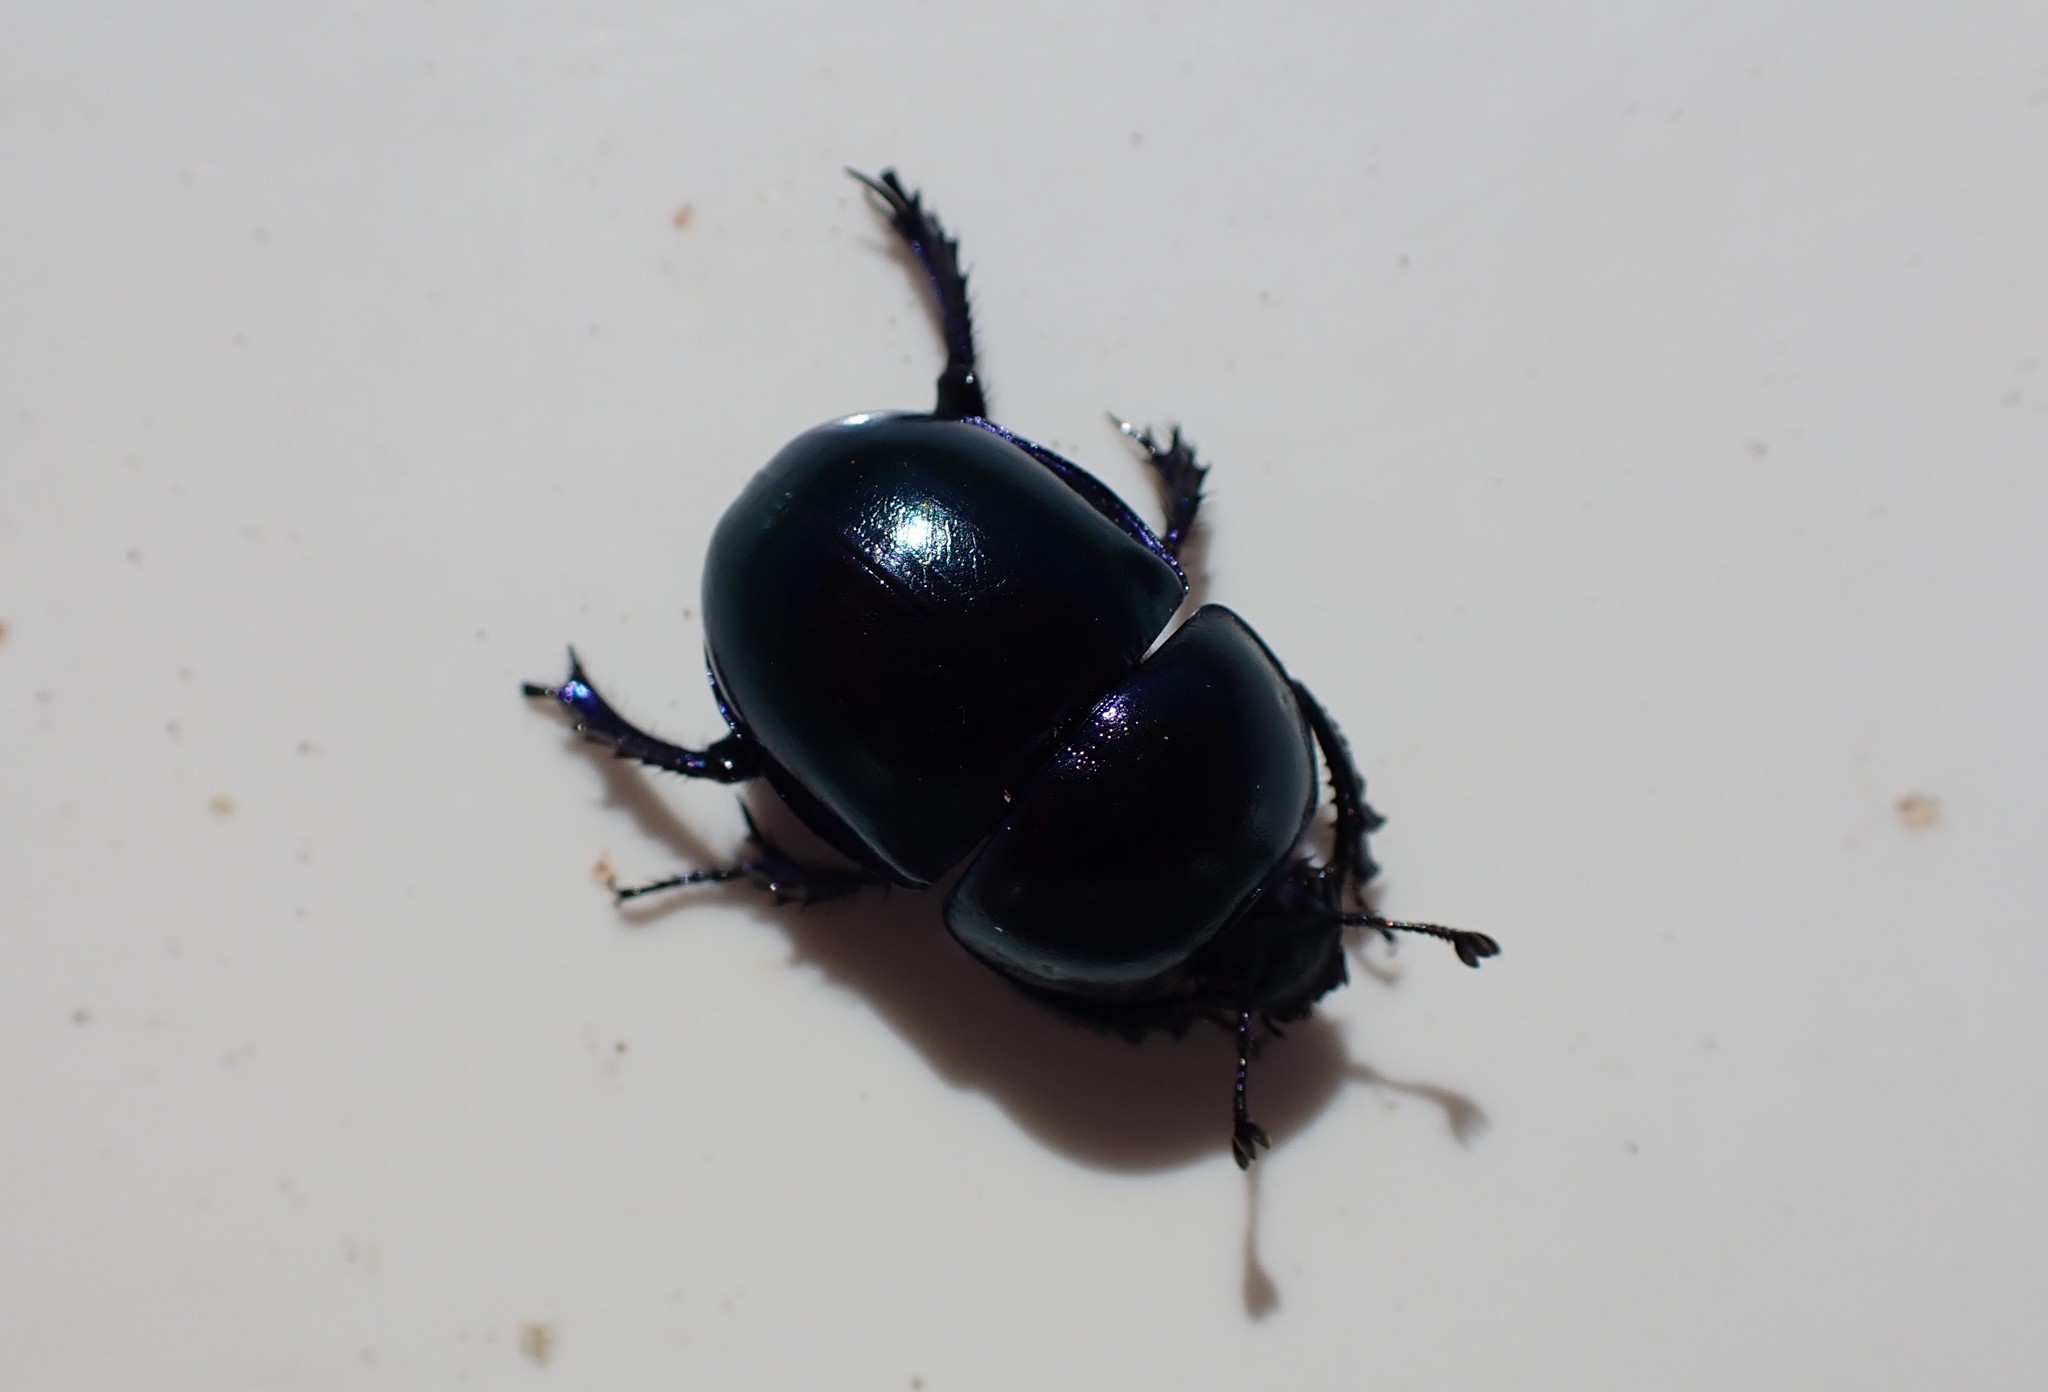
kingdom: Animalia
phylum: Arthropoda
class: Insecta
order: Coleoptera
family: Geotrupidae
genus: Trypocopris
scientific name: Trypocopris vernalis
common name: Spring dumbledor
